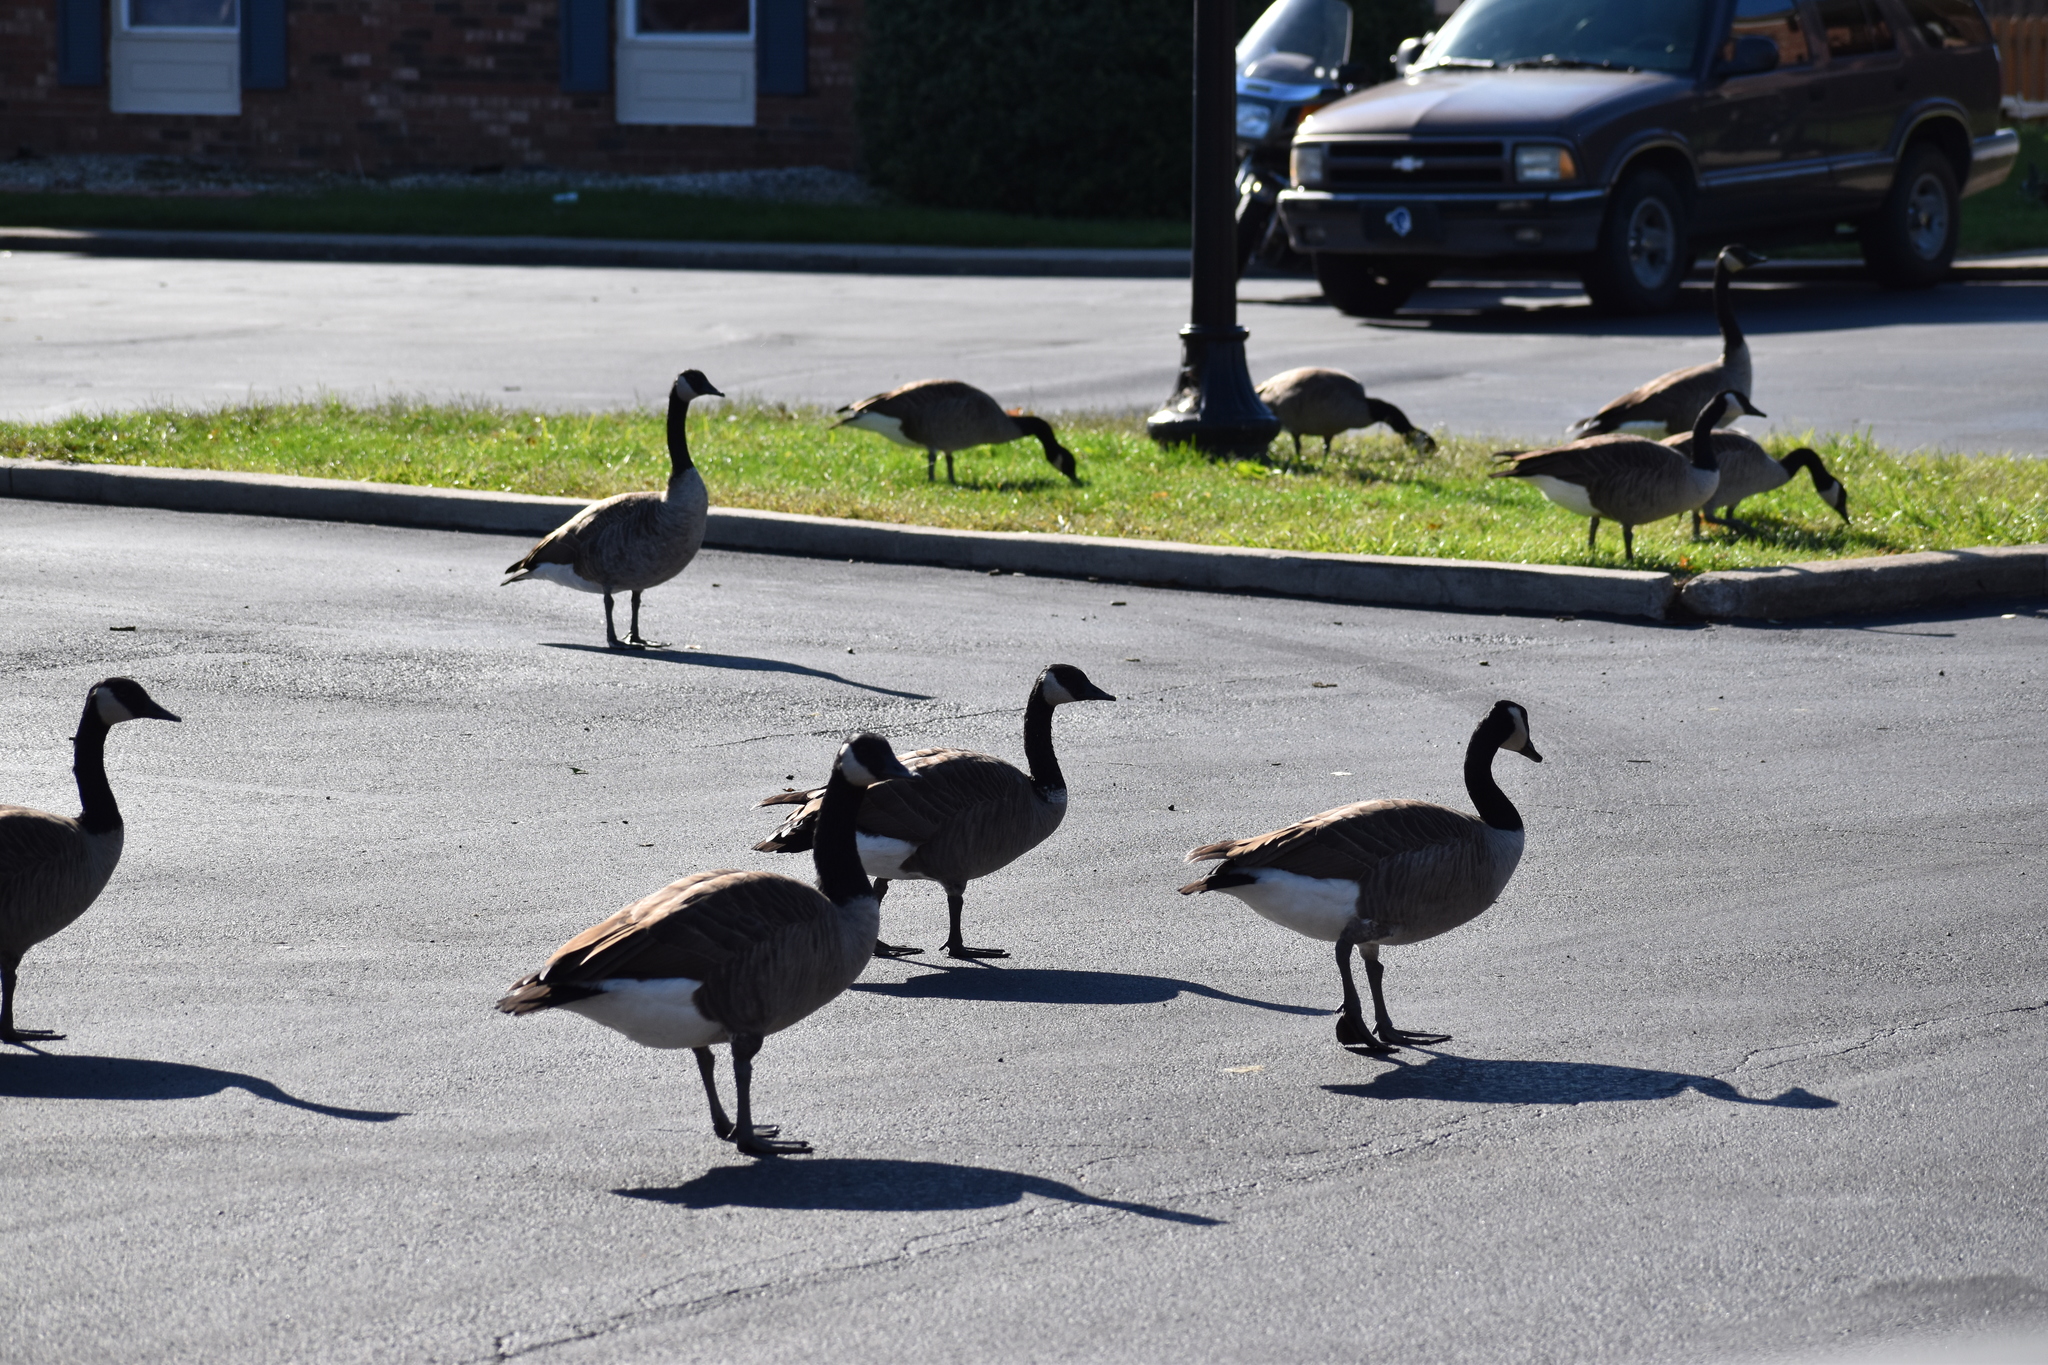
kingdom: Animalia
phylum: Chordata
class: Aves
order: Anseriformes
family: Anatidae
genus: Branta
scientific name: Branta canadensis
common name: Canada goose
